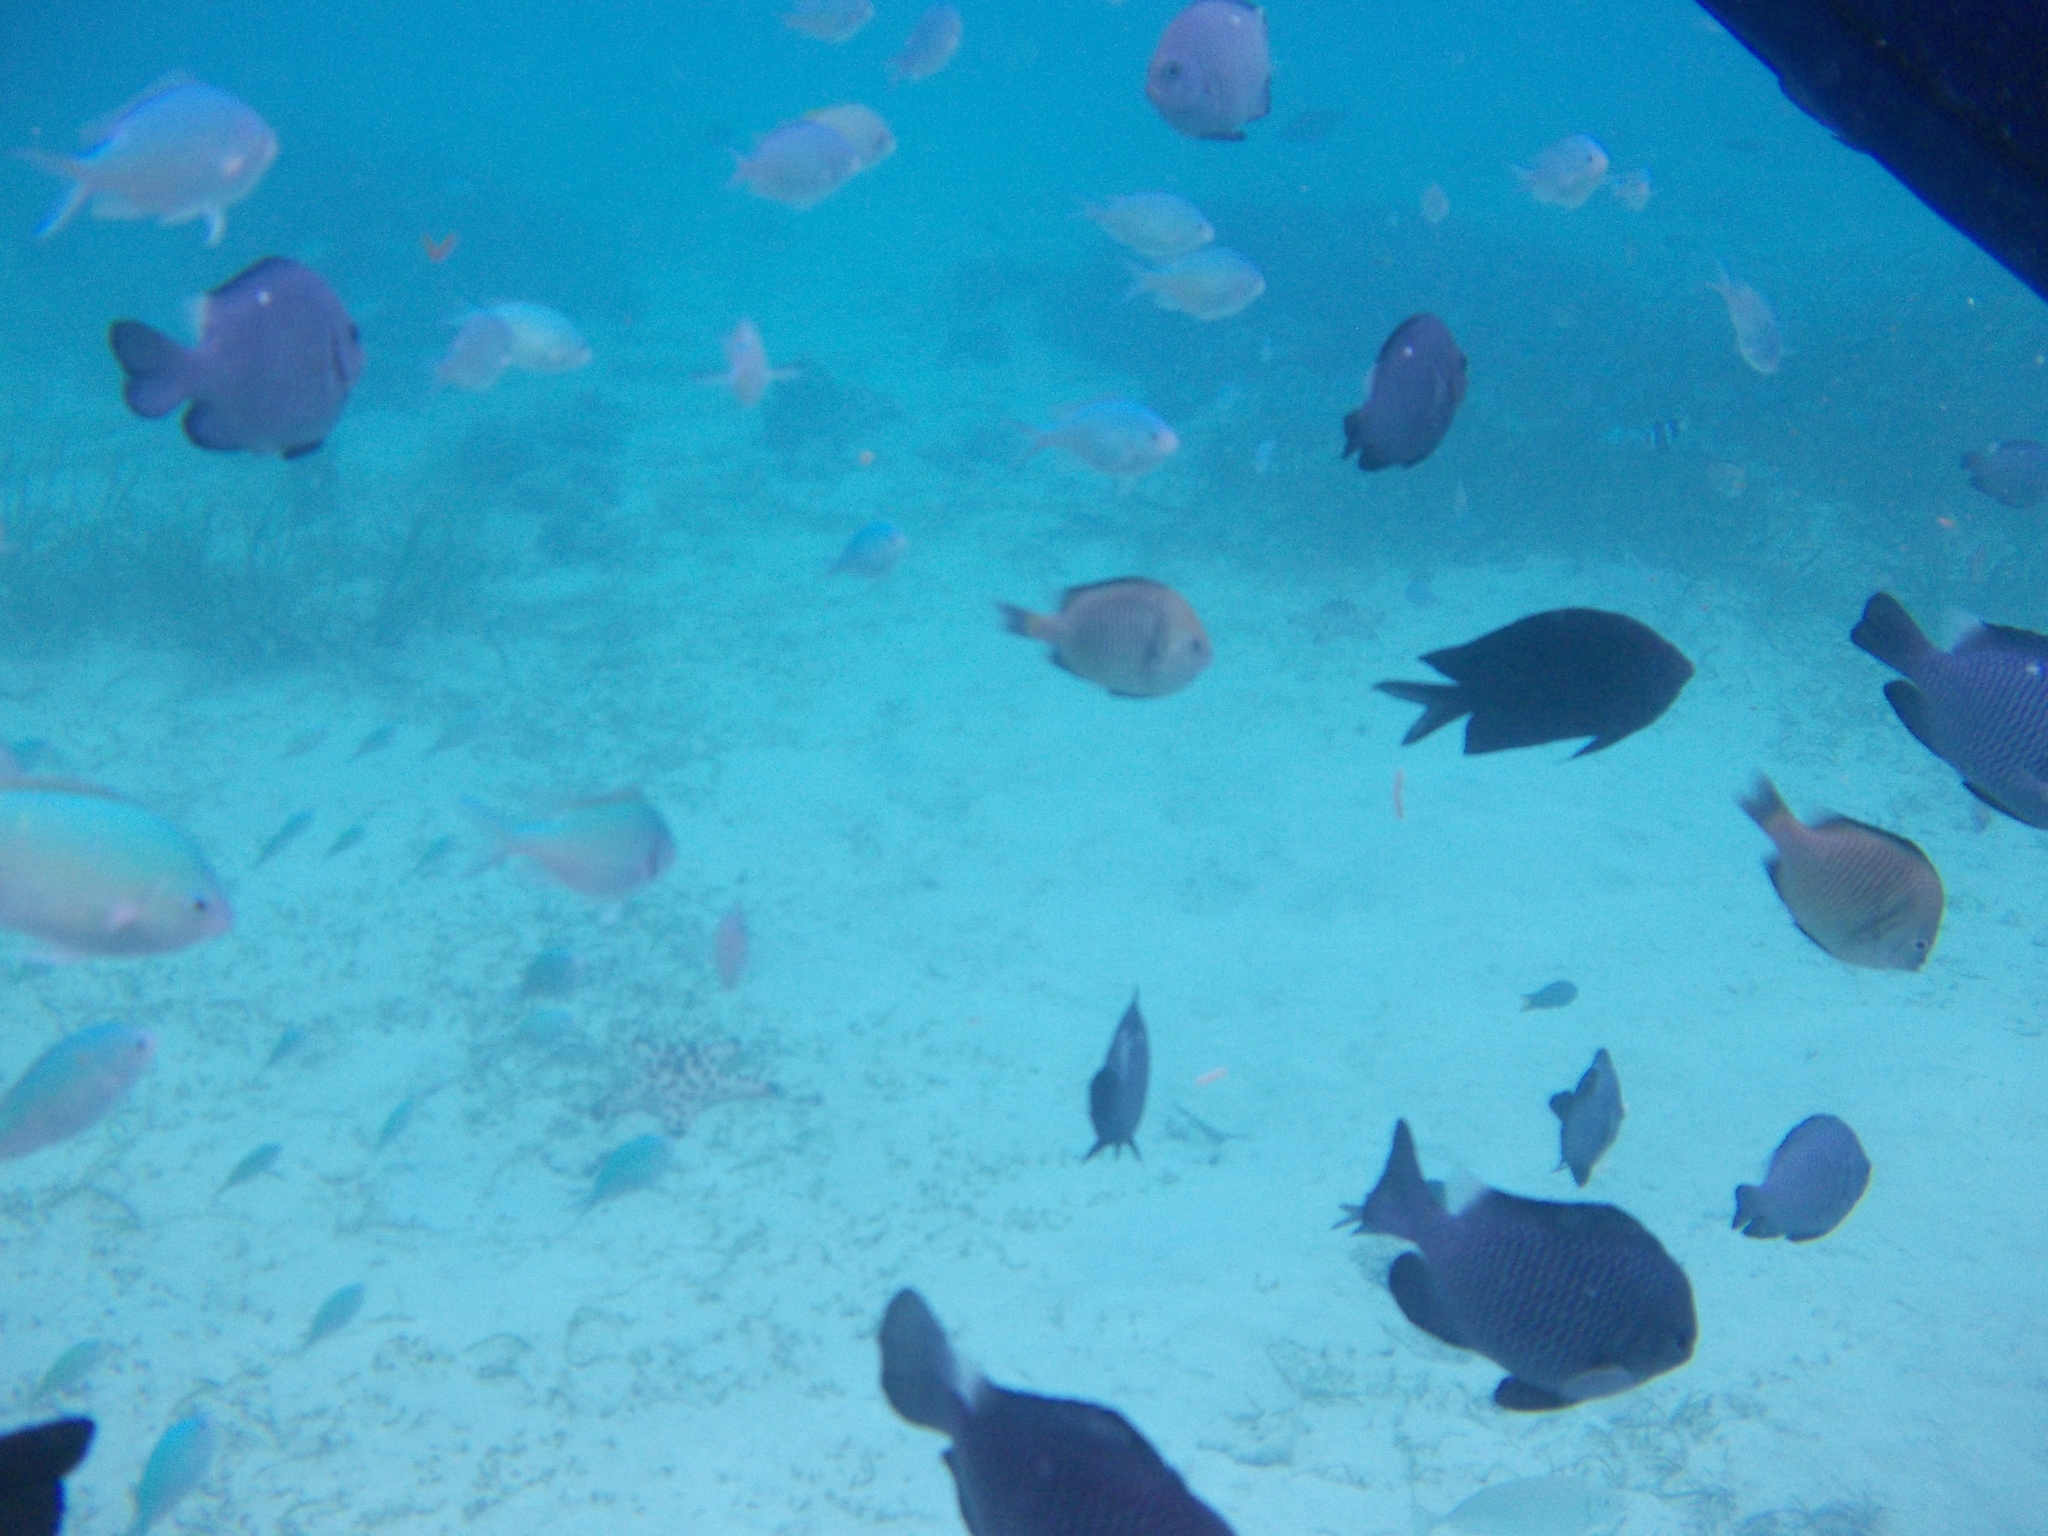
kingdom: Animalia
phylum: Chordata
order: Perciformes
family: Pomacentridae
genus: Dascyllus
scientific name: Dascyllus trimaculatus
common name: Threespot dascyllus
